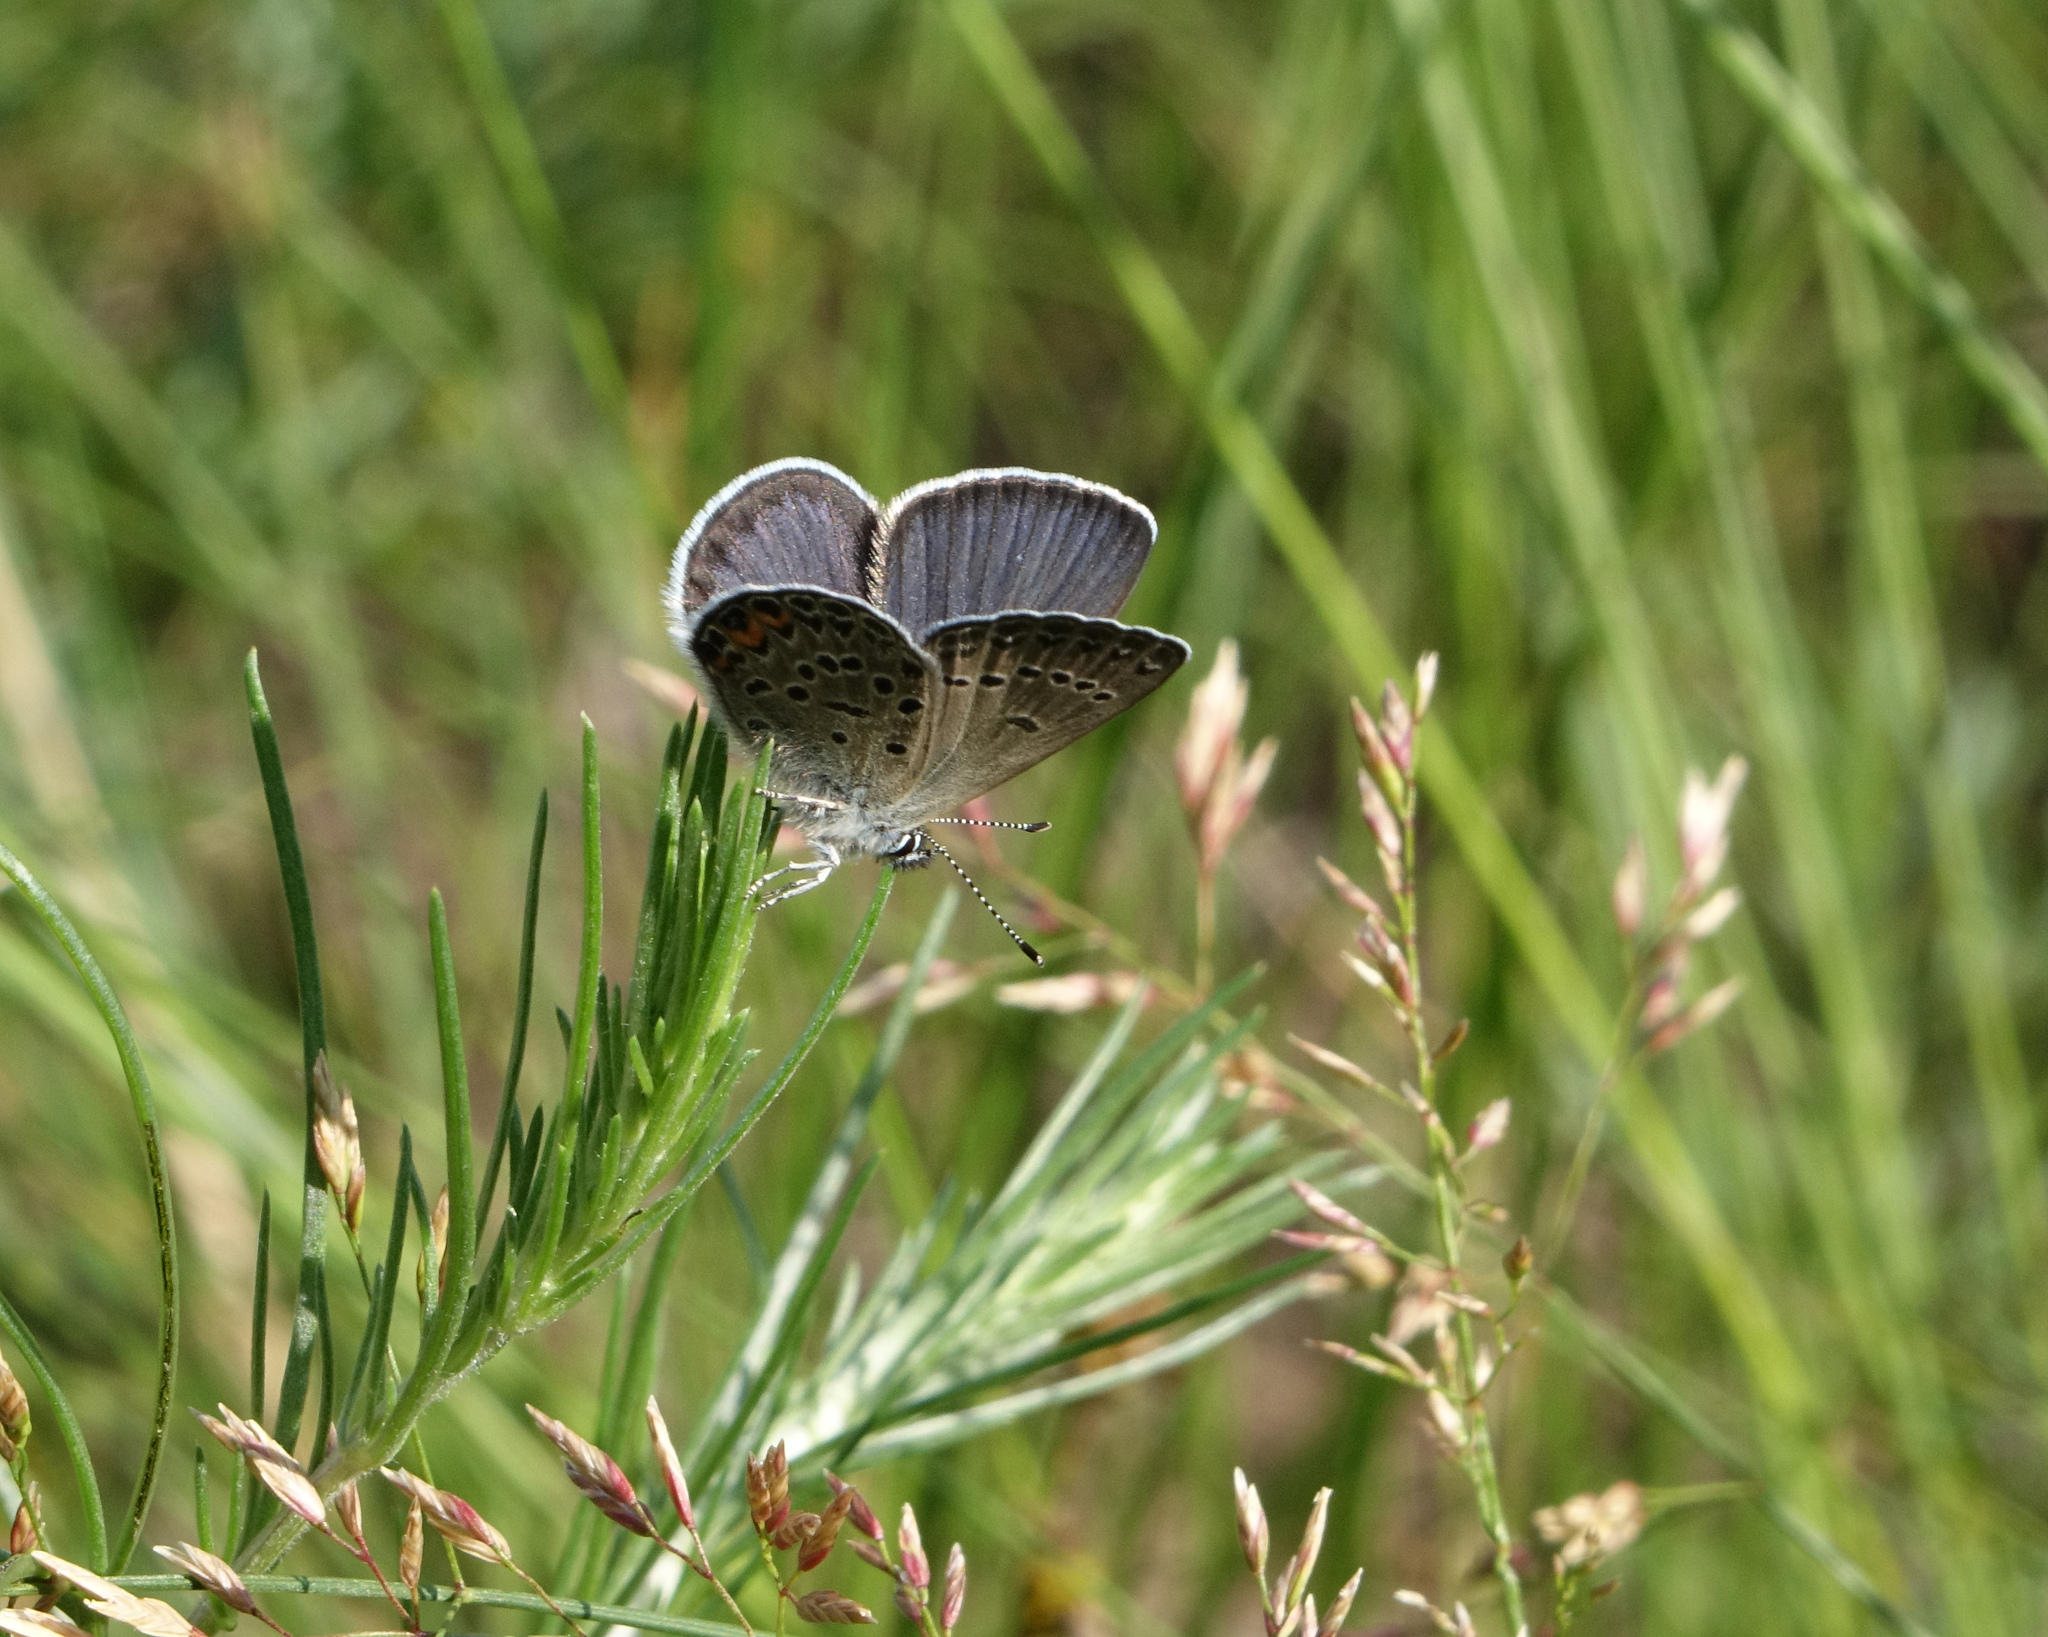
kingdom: Animalia
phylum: Arthropoda
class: Insecta
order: Lepidoptera
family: Lycaenidae
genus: Vacciniina
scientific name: Vacciniina optilete
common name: Cranberry blue
